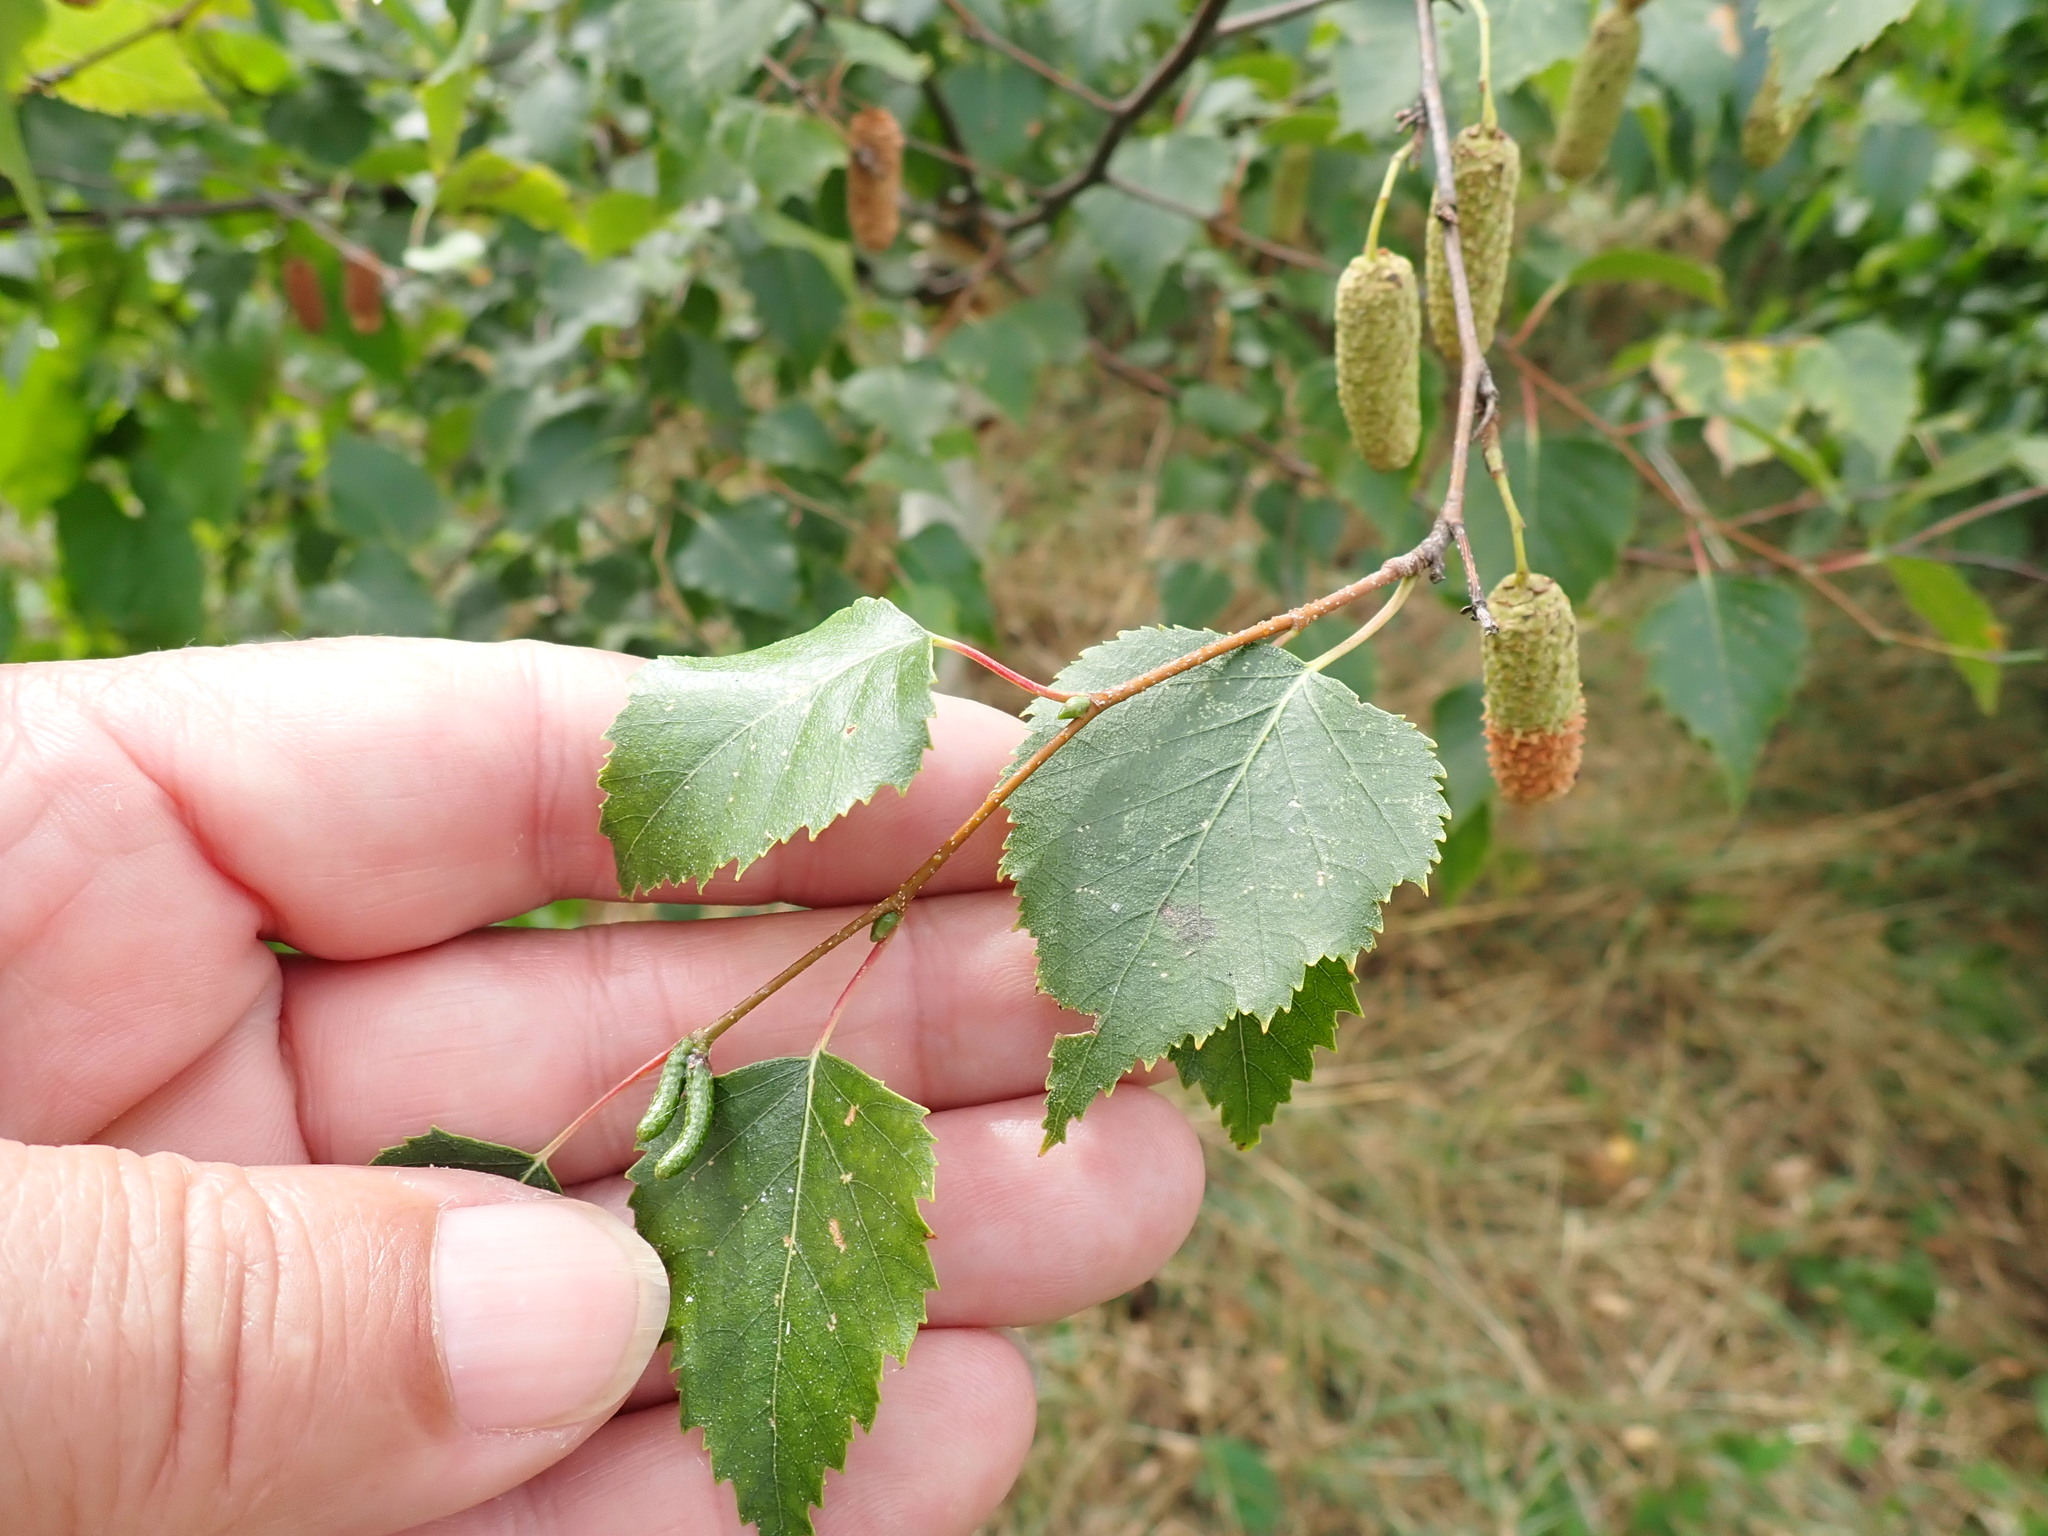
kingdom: Plantae
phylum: Tracheophyta
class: Magnoliopsida
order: Fagales
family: Betulaceae
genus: Betula
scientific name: Betula pendula
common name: Silver birch
